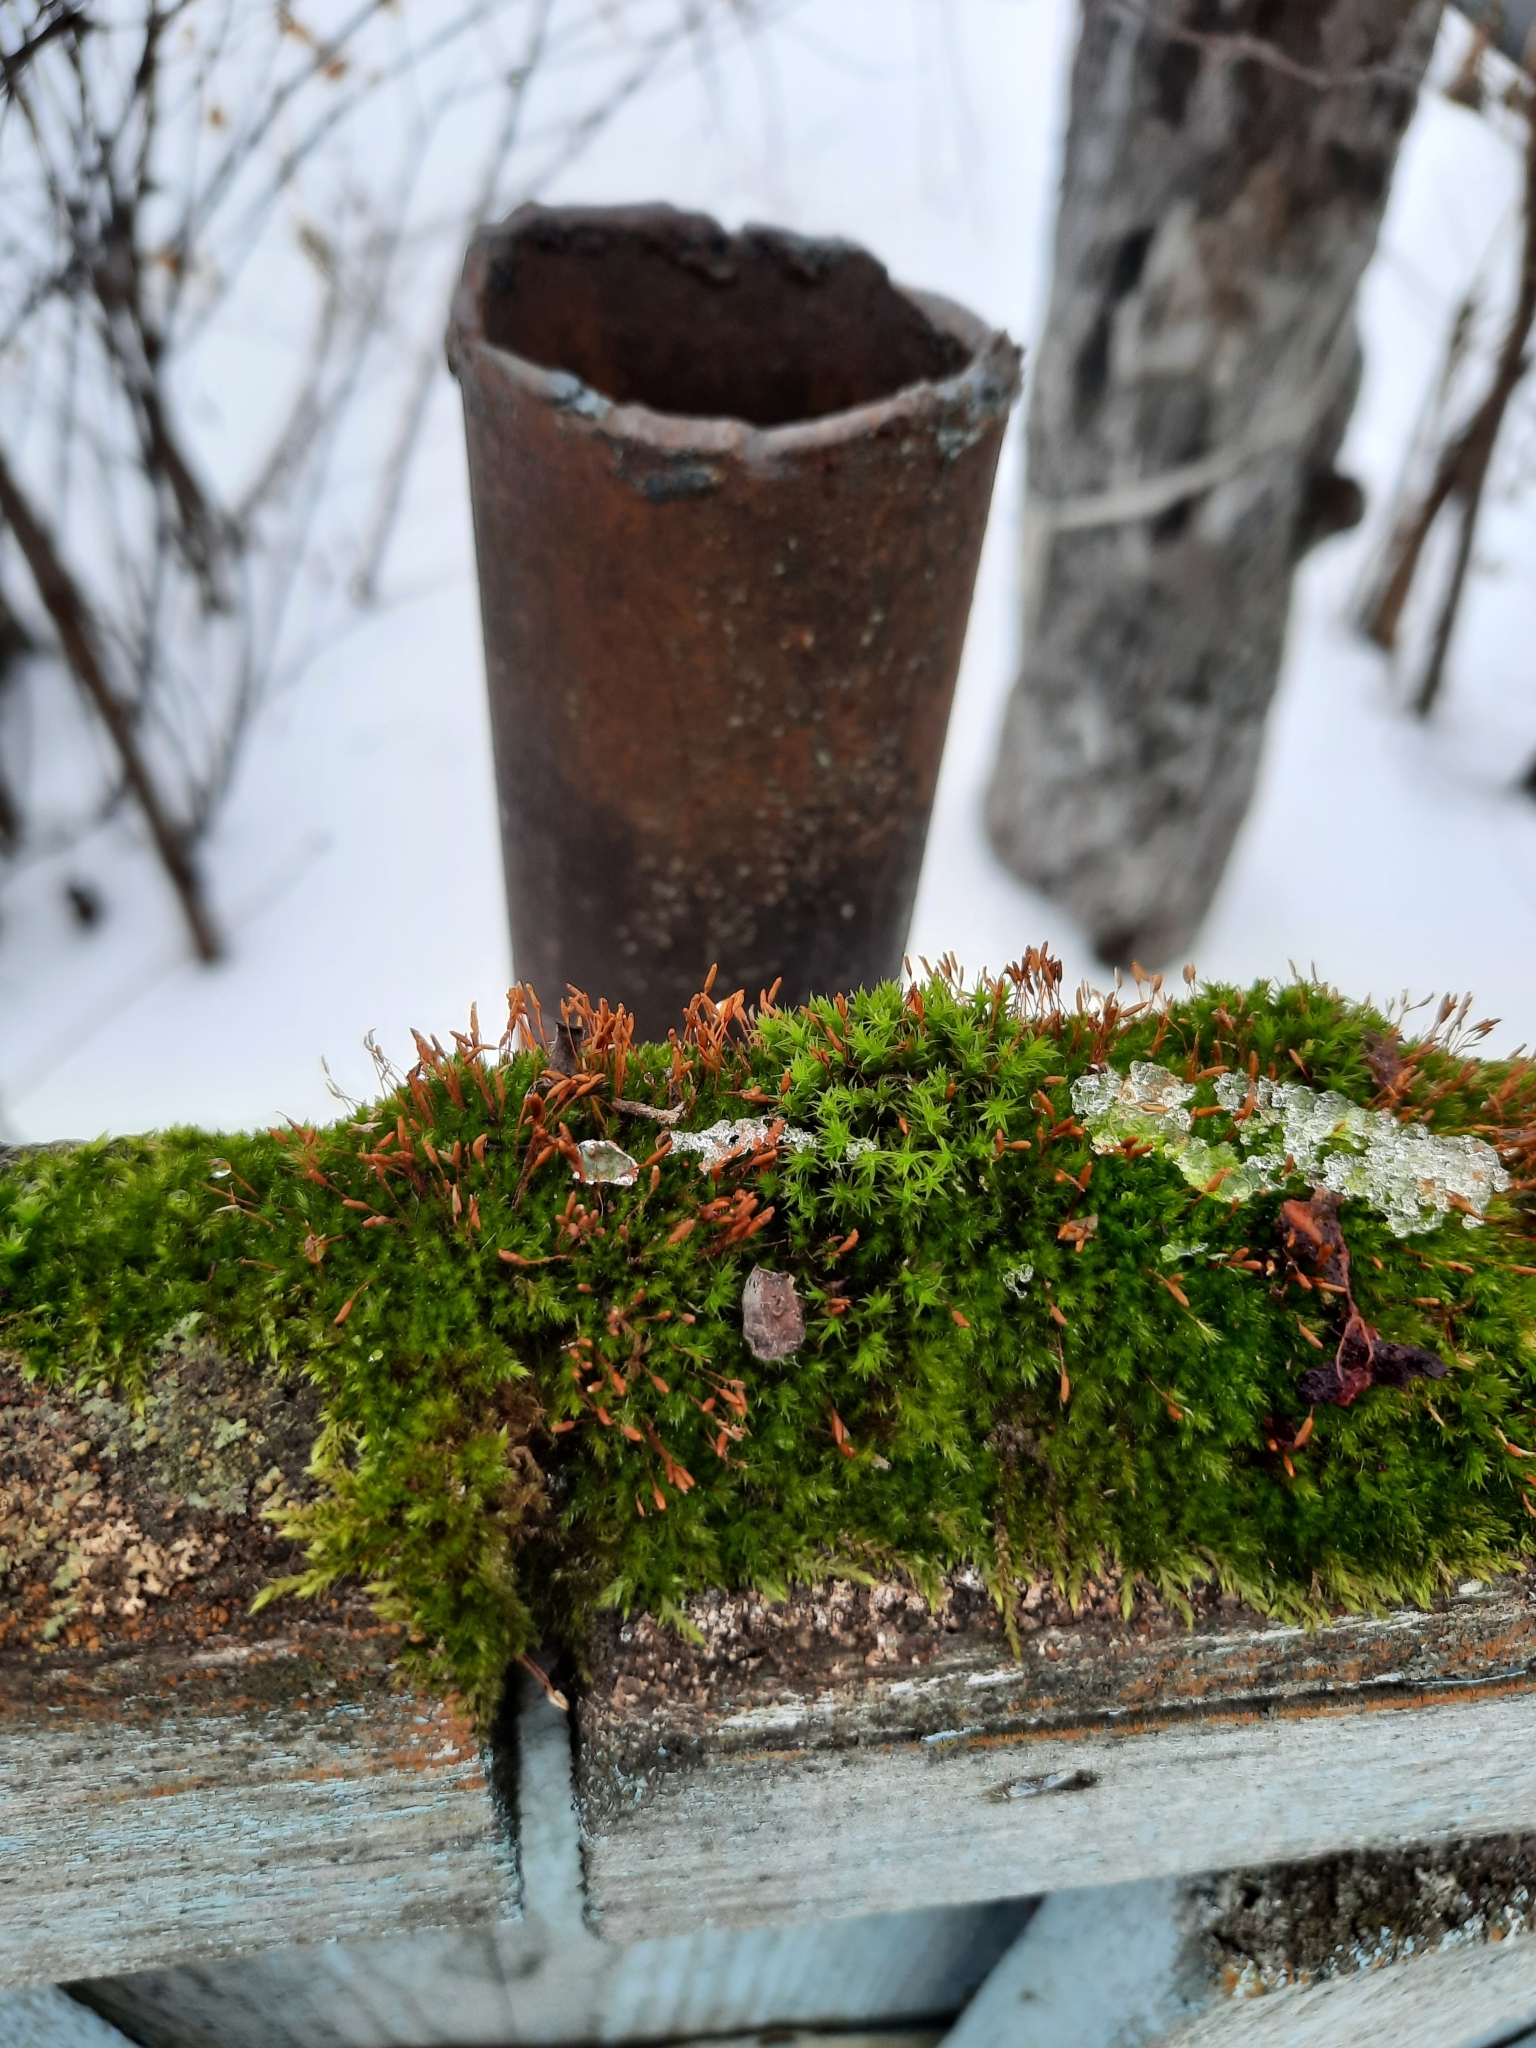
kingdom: Plantae
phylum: Bryophyta
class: Bryopsida
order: Hypnales
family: Pylaisiadelphaceae
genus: Platygyrium
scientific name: Platygyrium repens
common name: Flat-brocade moss
